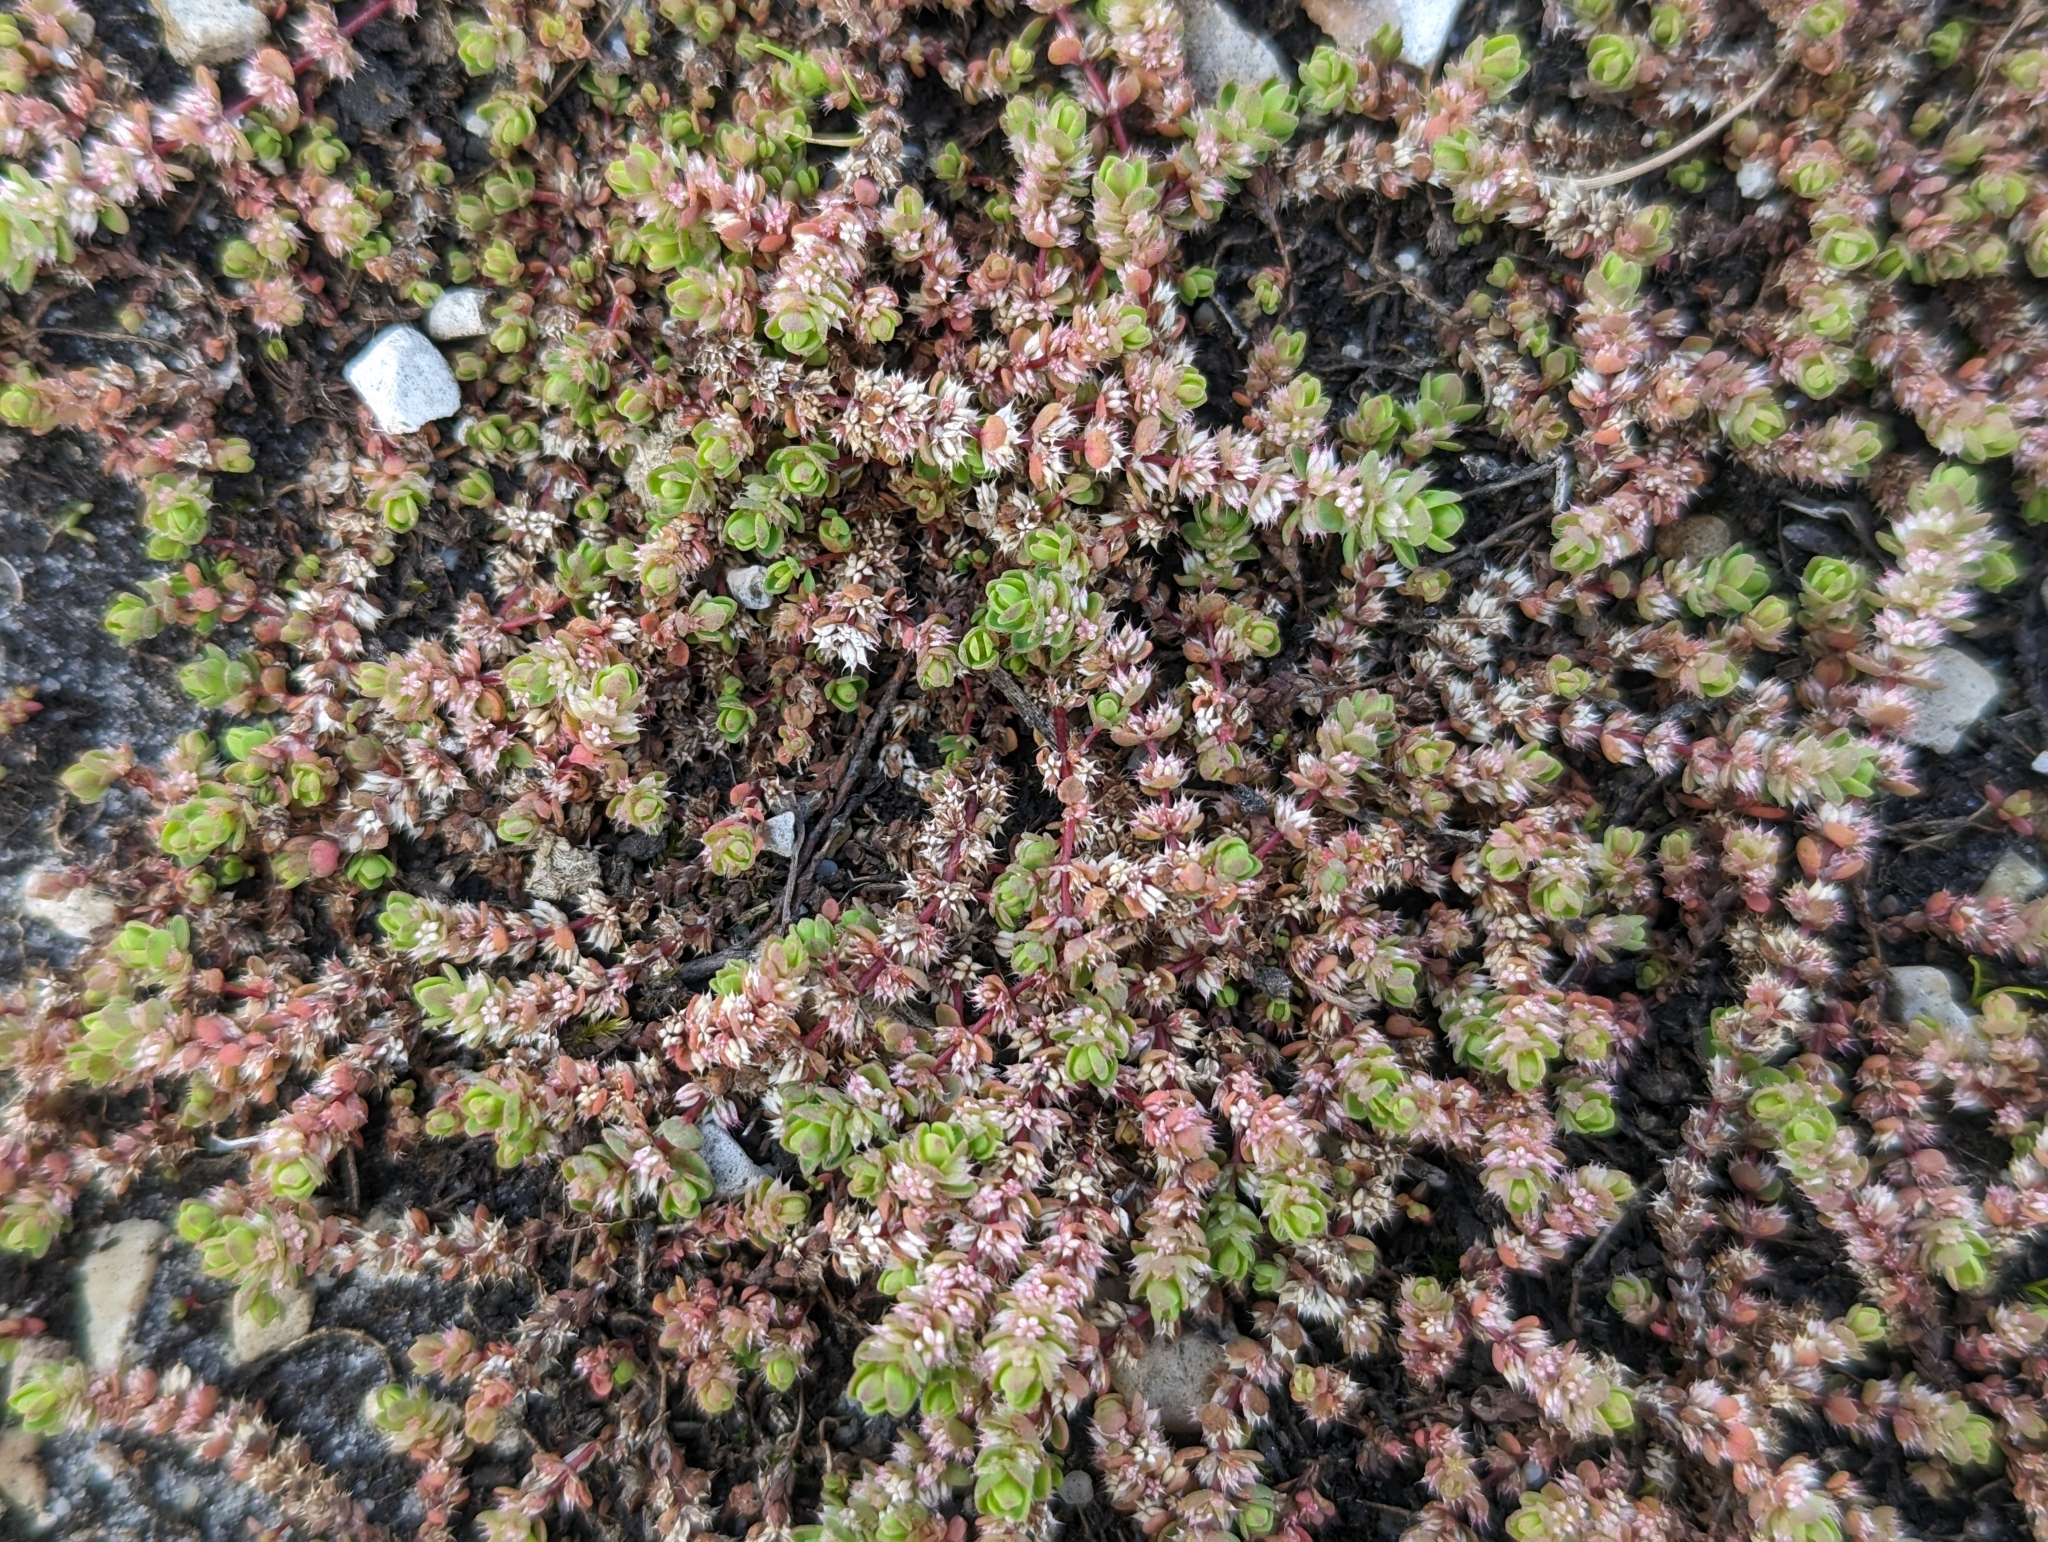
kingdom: Plantae
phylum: Tracheophyta
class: Magnoliopsida
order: Caryophyllales
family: Caryophyllaceae
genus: Illecebrum
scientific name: Illecebrum verticillatum
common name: Coral necklace
